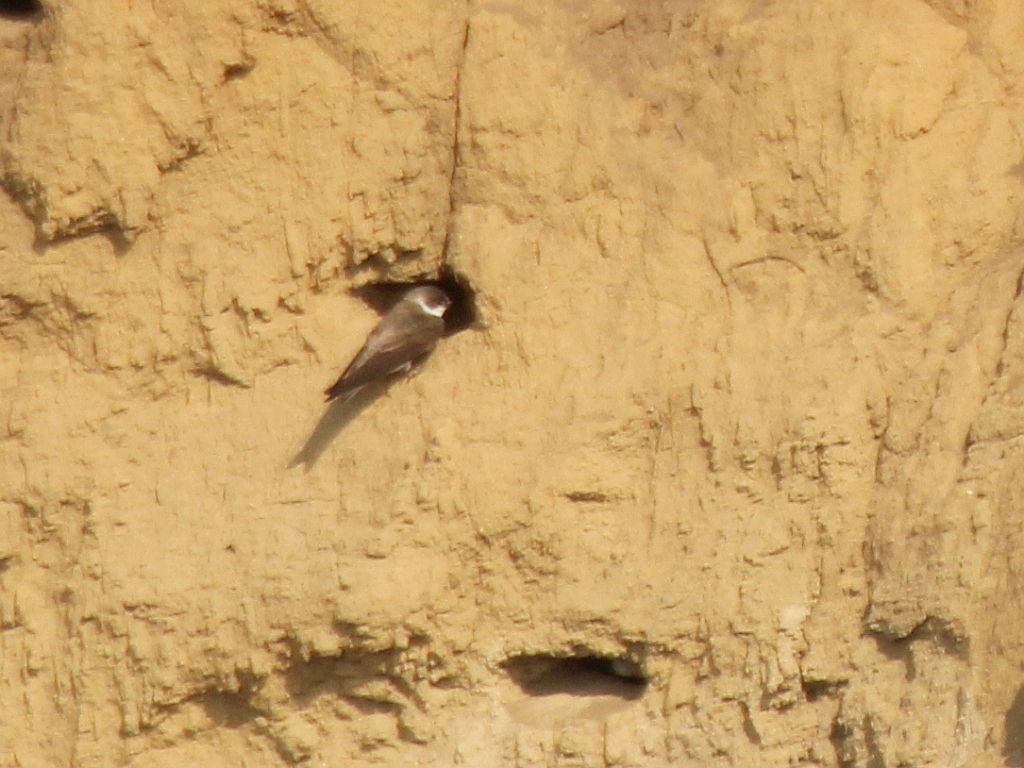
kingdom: Animalia
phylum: Chordata
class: Aves
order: Passeriformes
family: Hirundinidae
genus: Riparia
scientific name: Riparia riparia
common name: Sand martin
